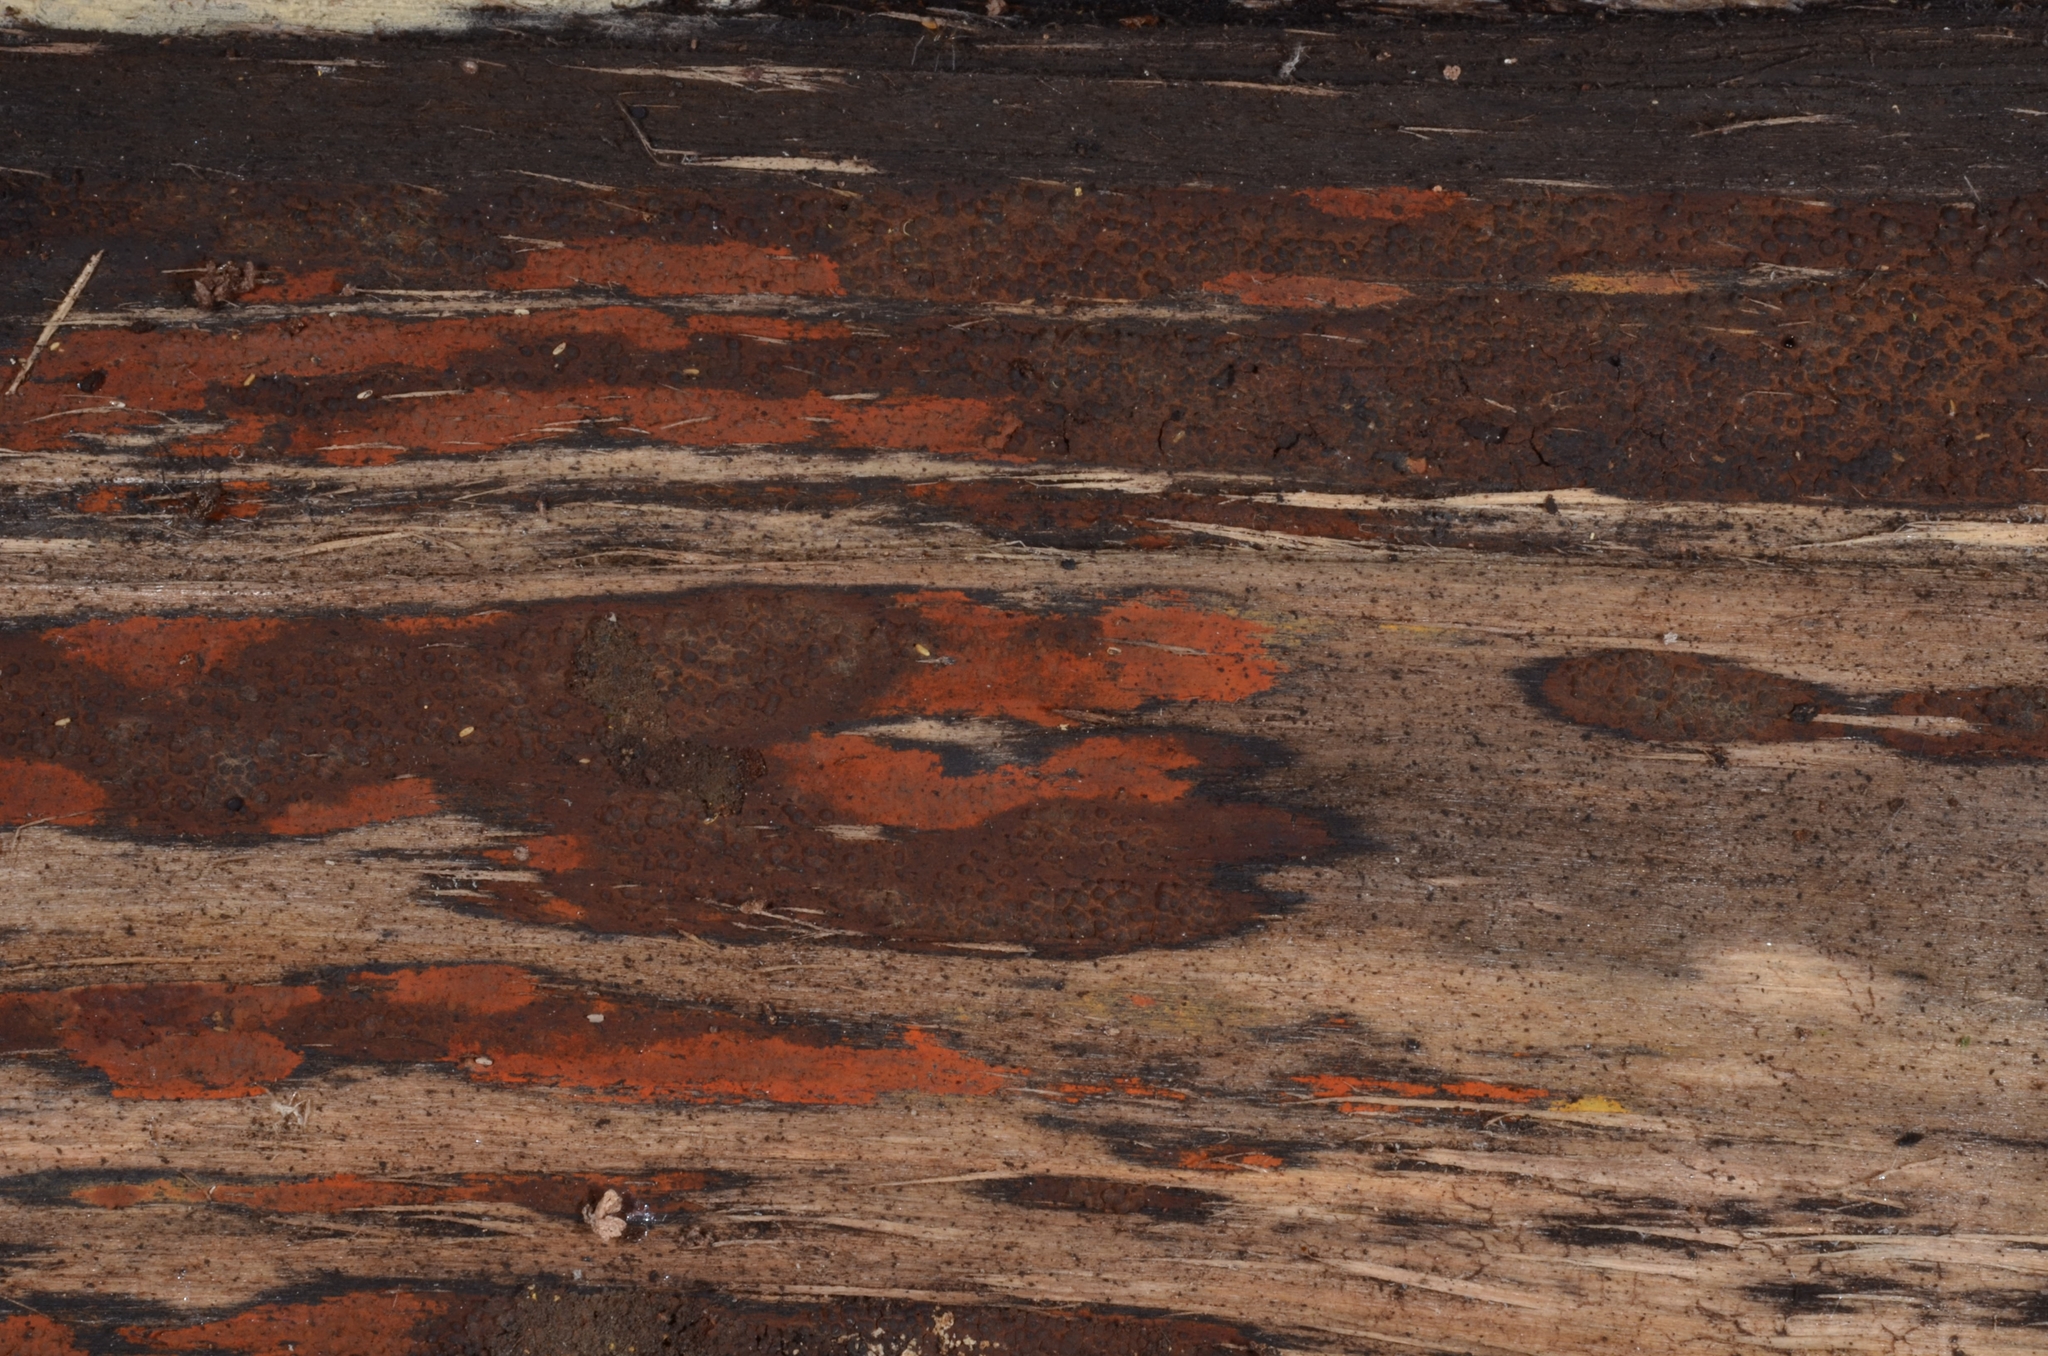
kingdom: Fungi
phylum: Ascomycota
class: Sordariomycetes
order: Xylariales
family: Hypoxylaceae
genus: Hypoxylon
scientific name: Hypoxylon rubiginosum
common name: Rusty woodwart
